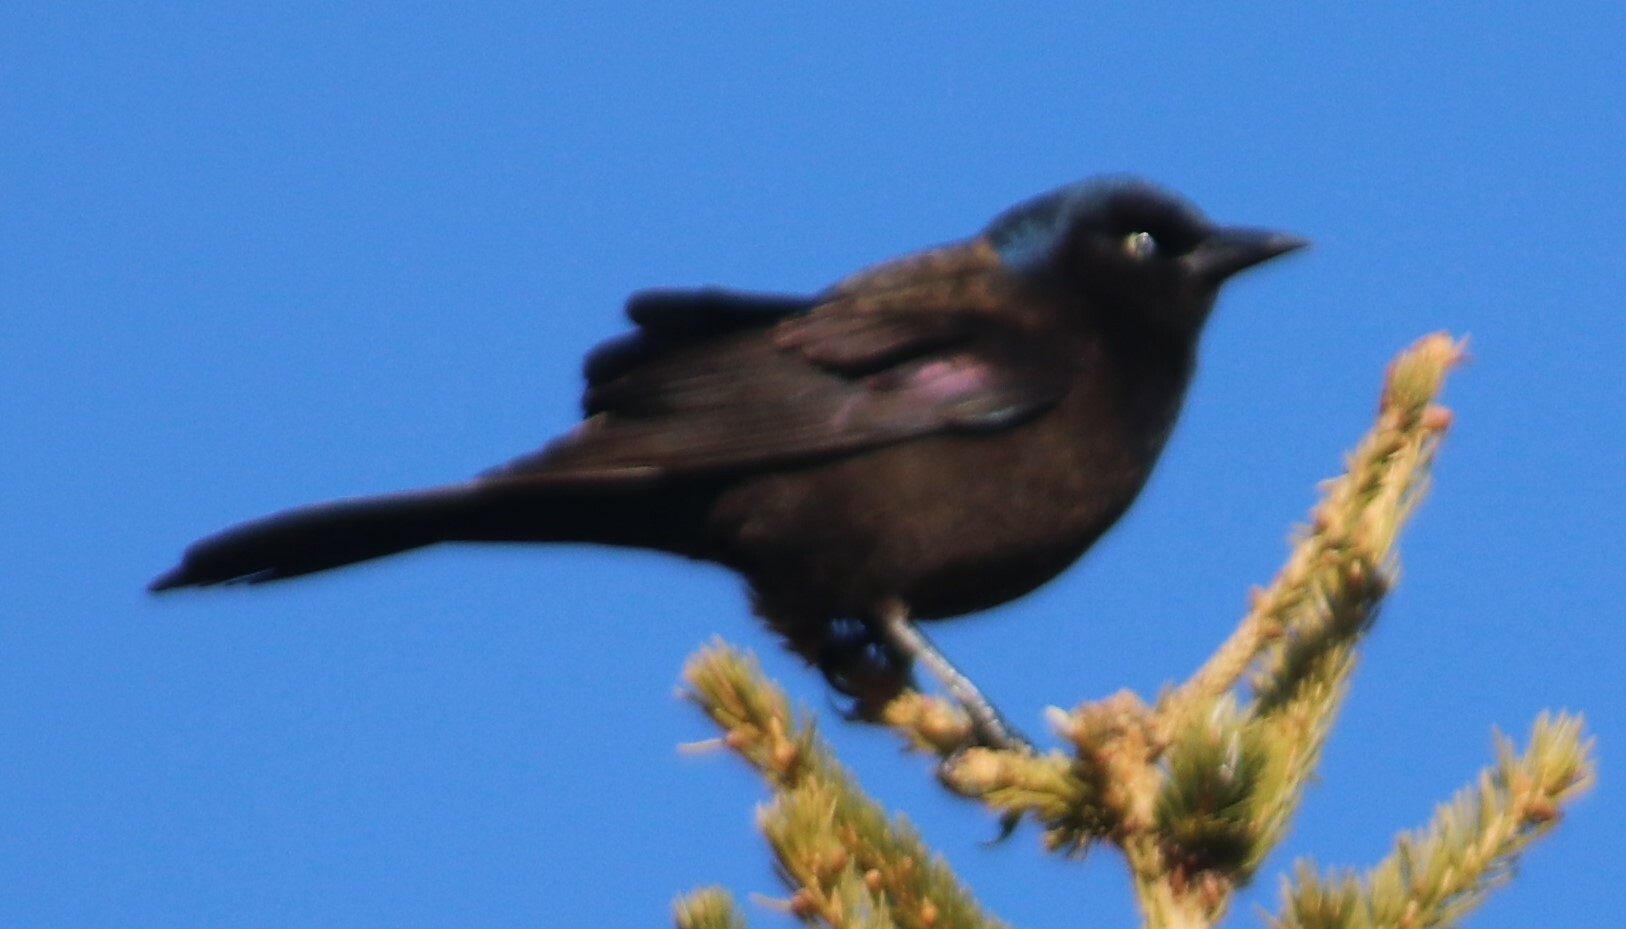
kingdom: Animalia
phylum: Chordata
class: Aves
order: Passeriformes
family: Icteridae
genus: Quiscalus
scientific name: Quiscalus quiscula
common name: Common grackle
